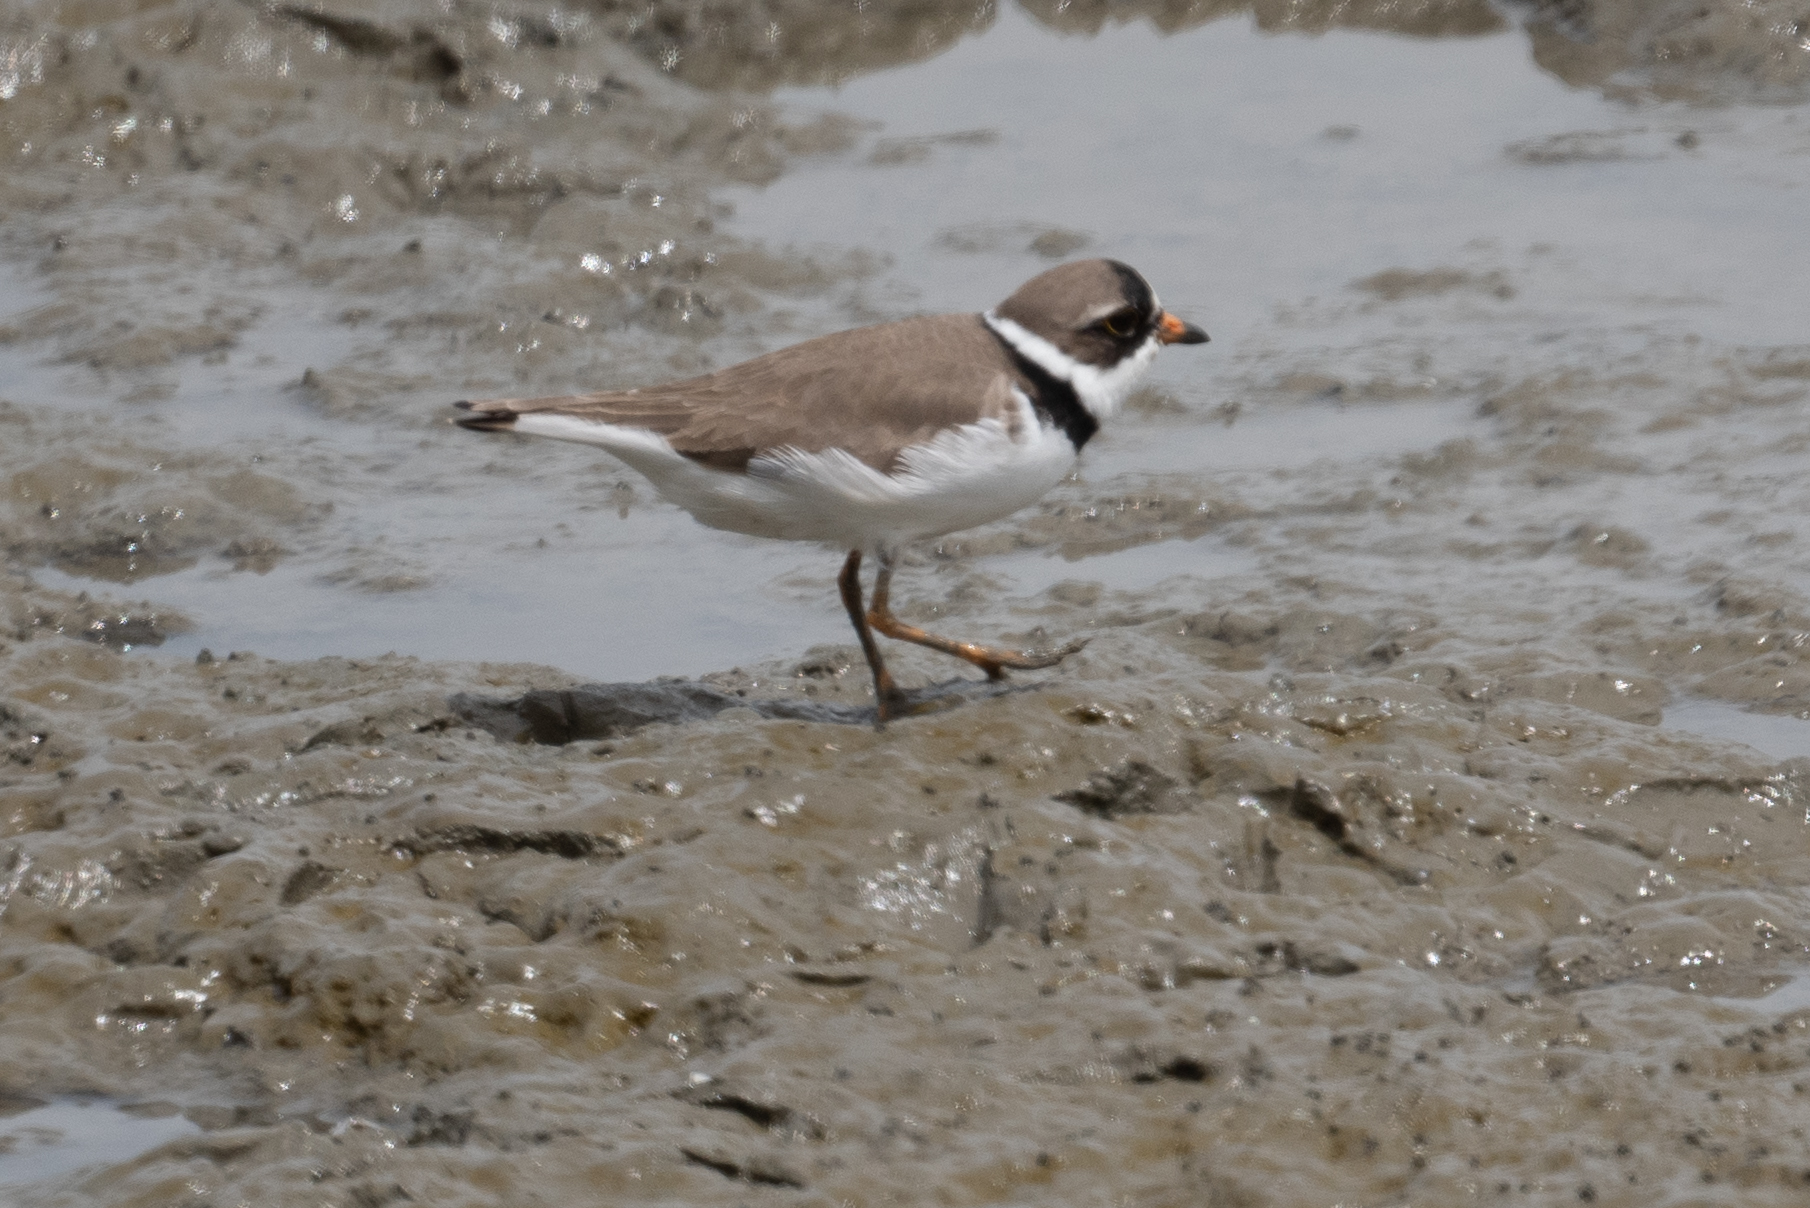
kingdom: Animalia
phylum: Chordata
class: Aves
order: Charadriiformes
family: Charadriidae
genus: Charadrius
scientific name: Charadrius semipalmatus
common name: Semipalmated plover
